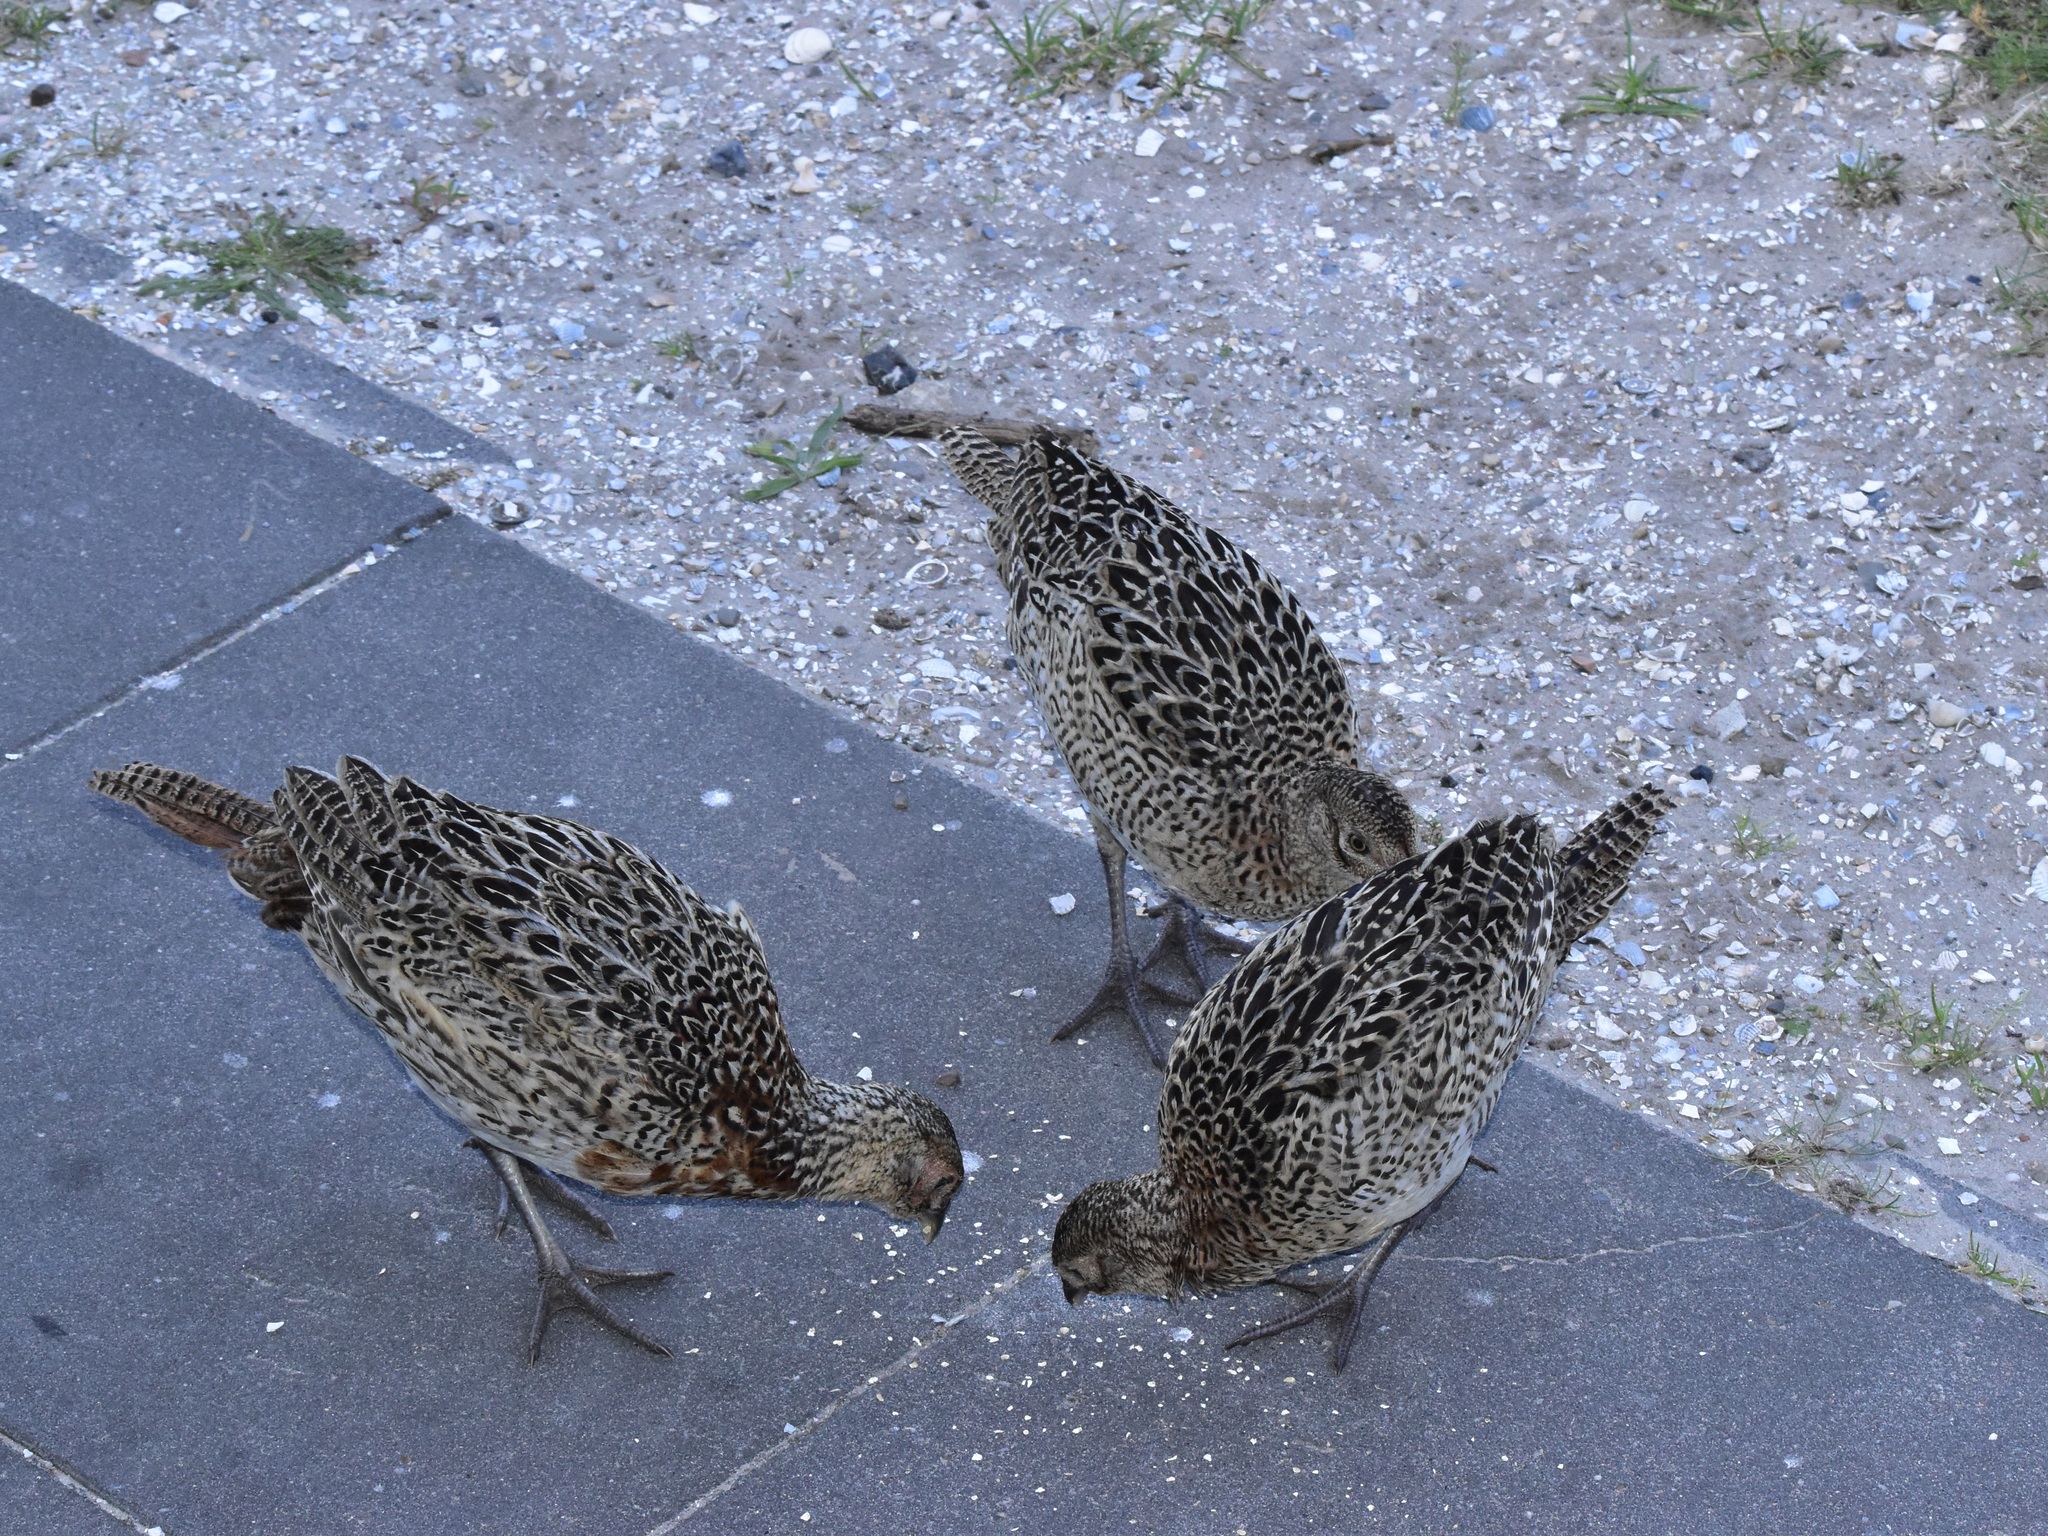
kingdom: Animalia
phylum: Chordata
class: Aves
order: Galliformes
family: Phasianidae
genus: Phasianus
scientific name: Phasianus colchicus
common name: Common pheasant
